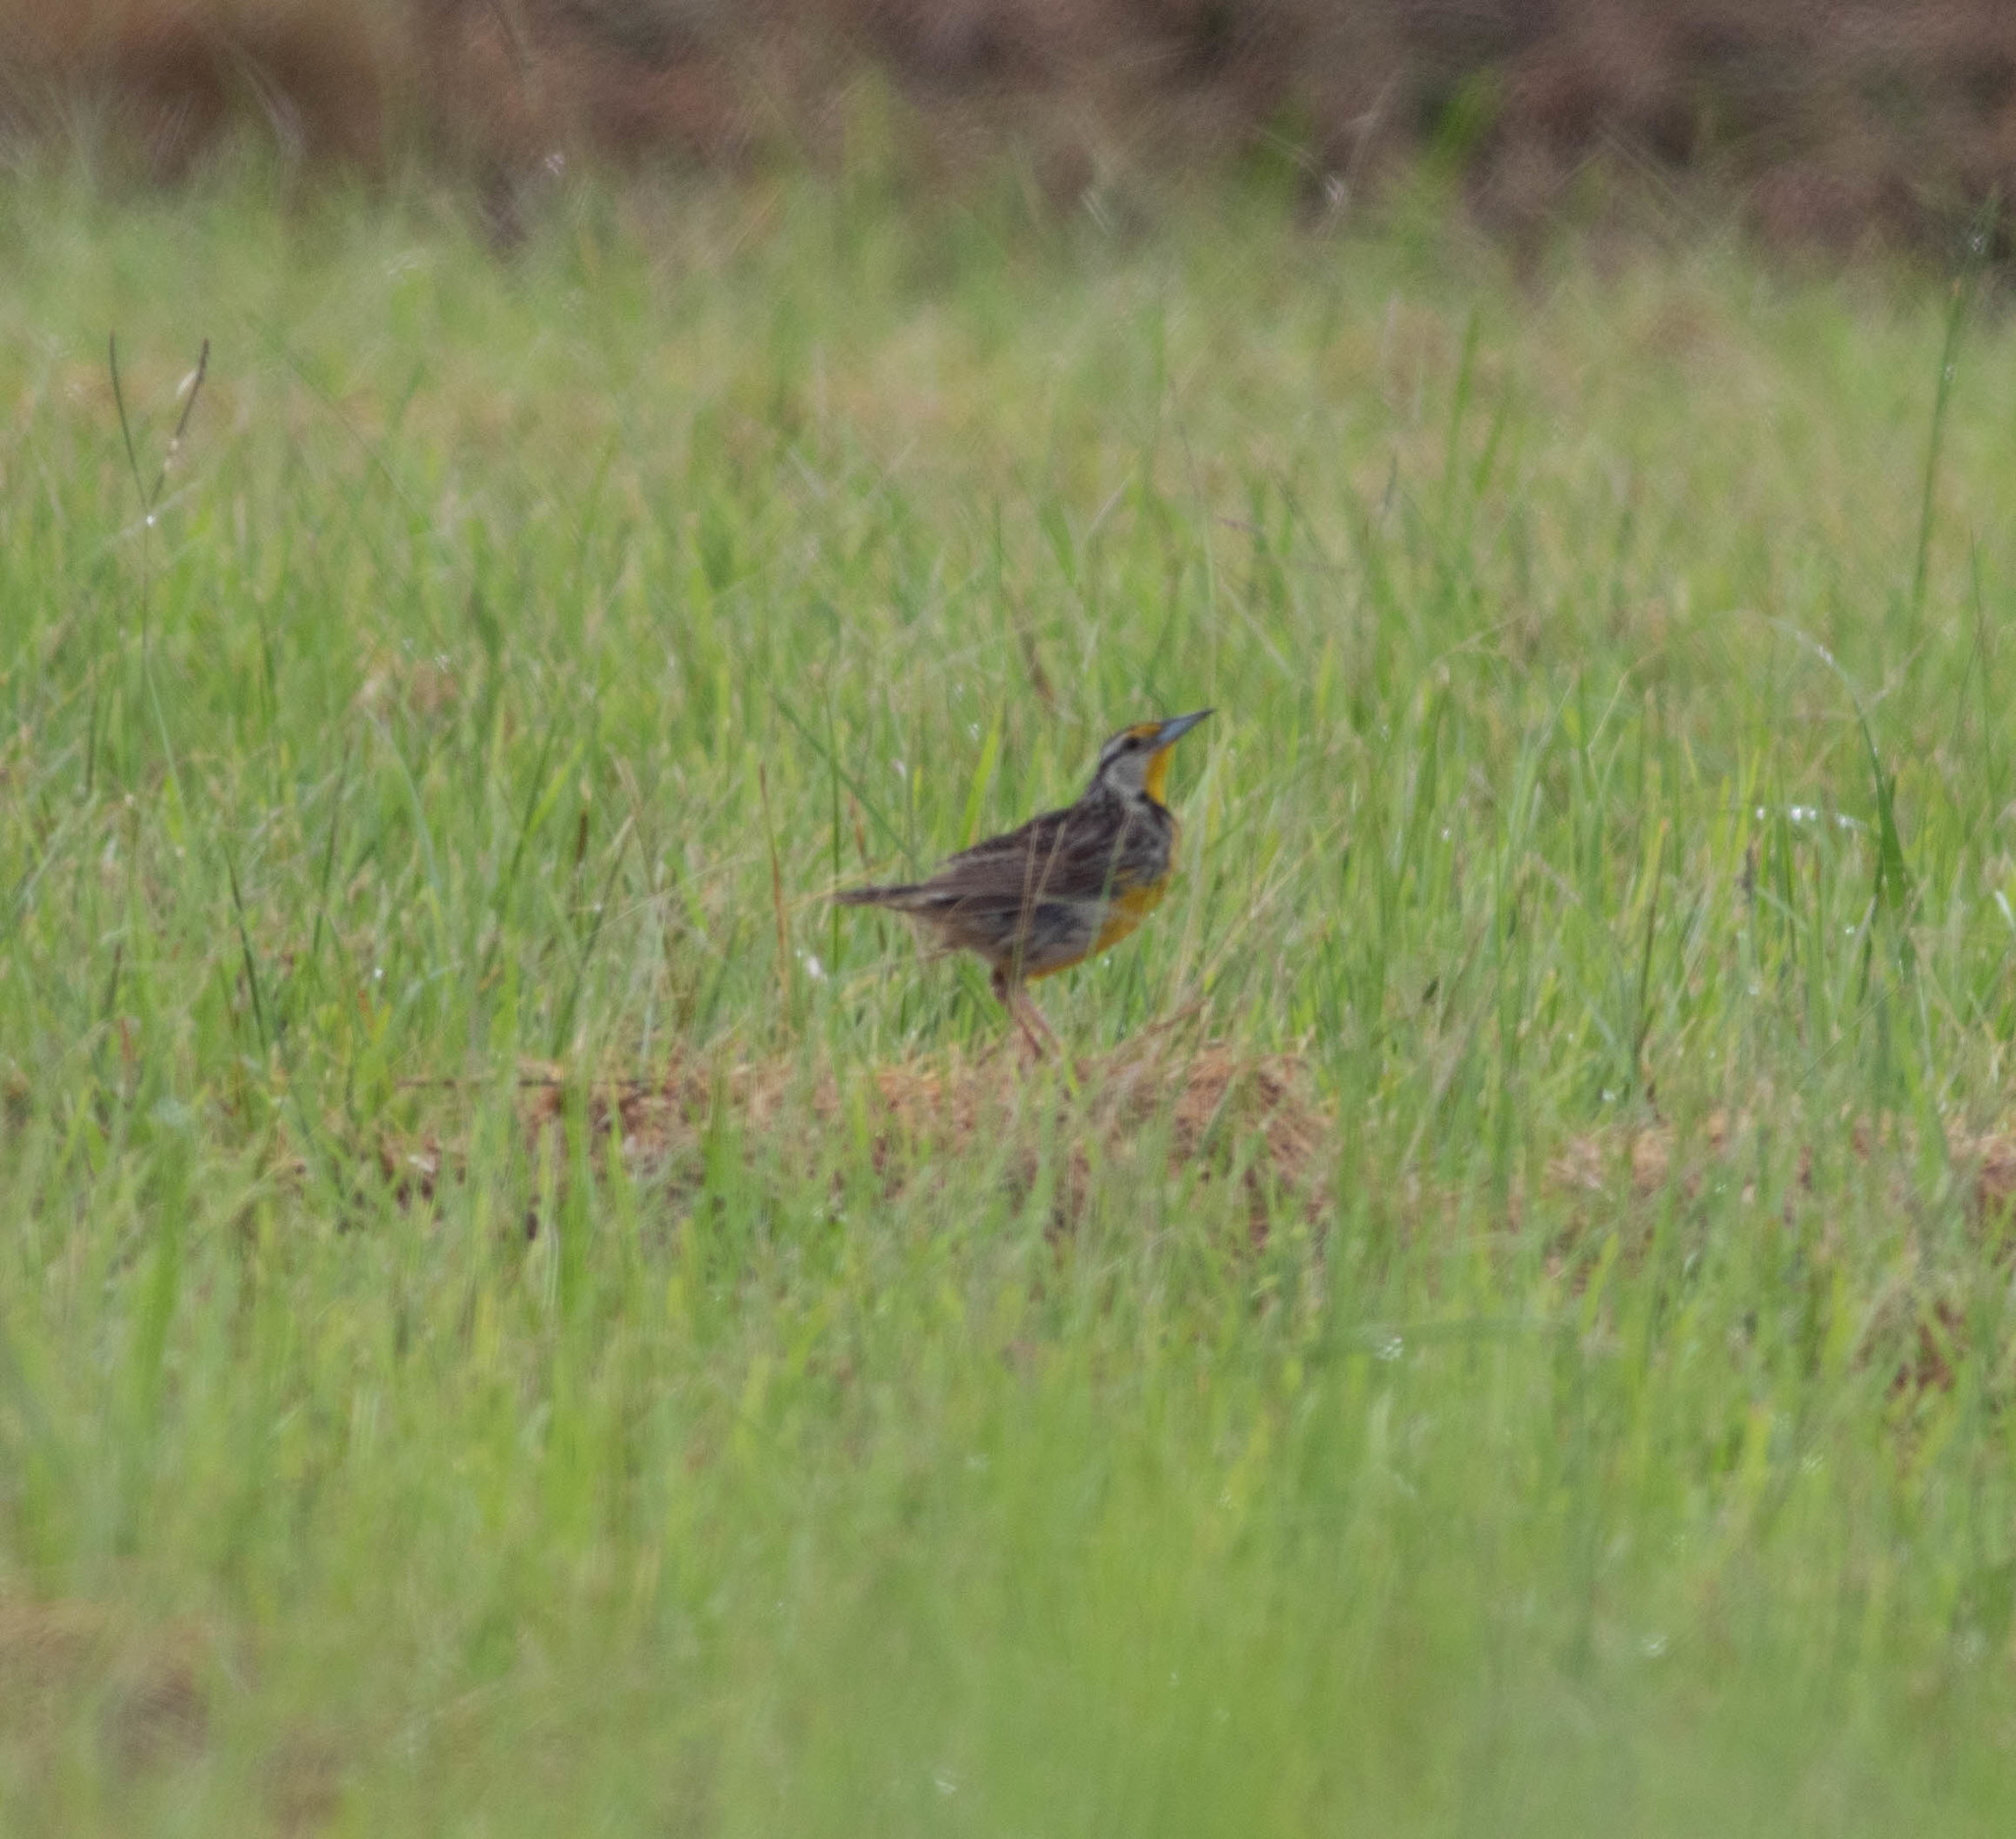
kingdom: Animalia
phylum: Chordata
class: Aves
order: Passeriformes
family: Icteridae
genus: Sturnella
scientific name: Sturnella magna
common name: Eastern meadowlark
